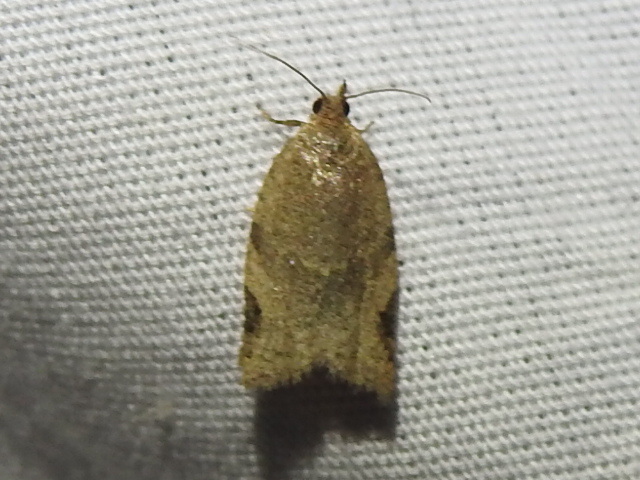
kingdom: Animalia
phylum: Arthropoda
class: Insecta
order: Lepidoptera
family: Tortricidae
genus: Clepsis
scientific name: Clepsis virescana
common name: Greenish apple moth
